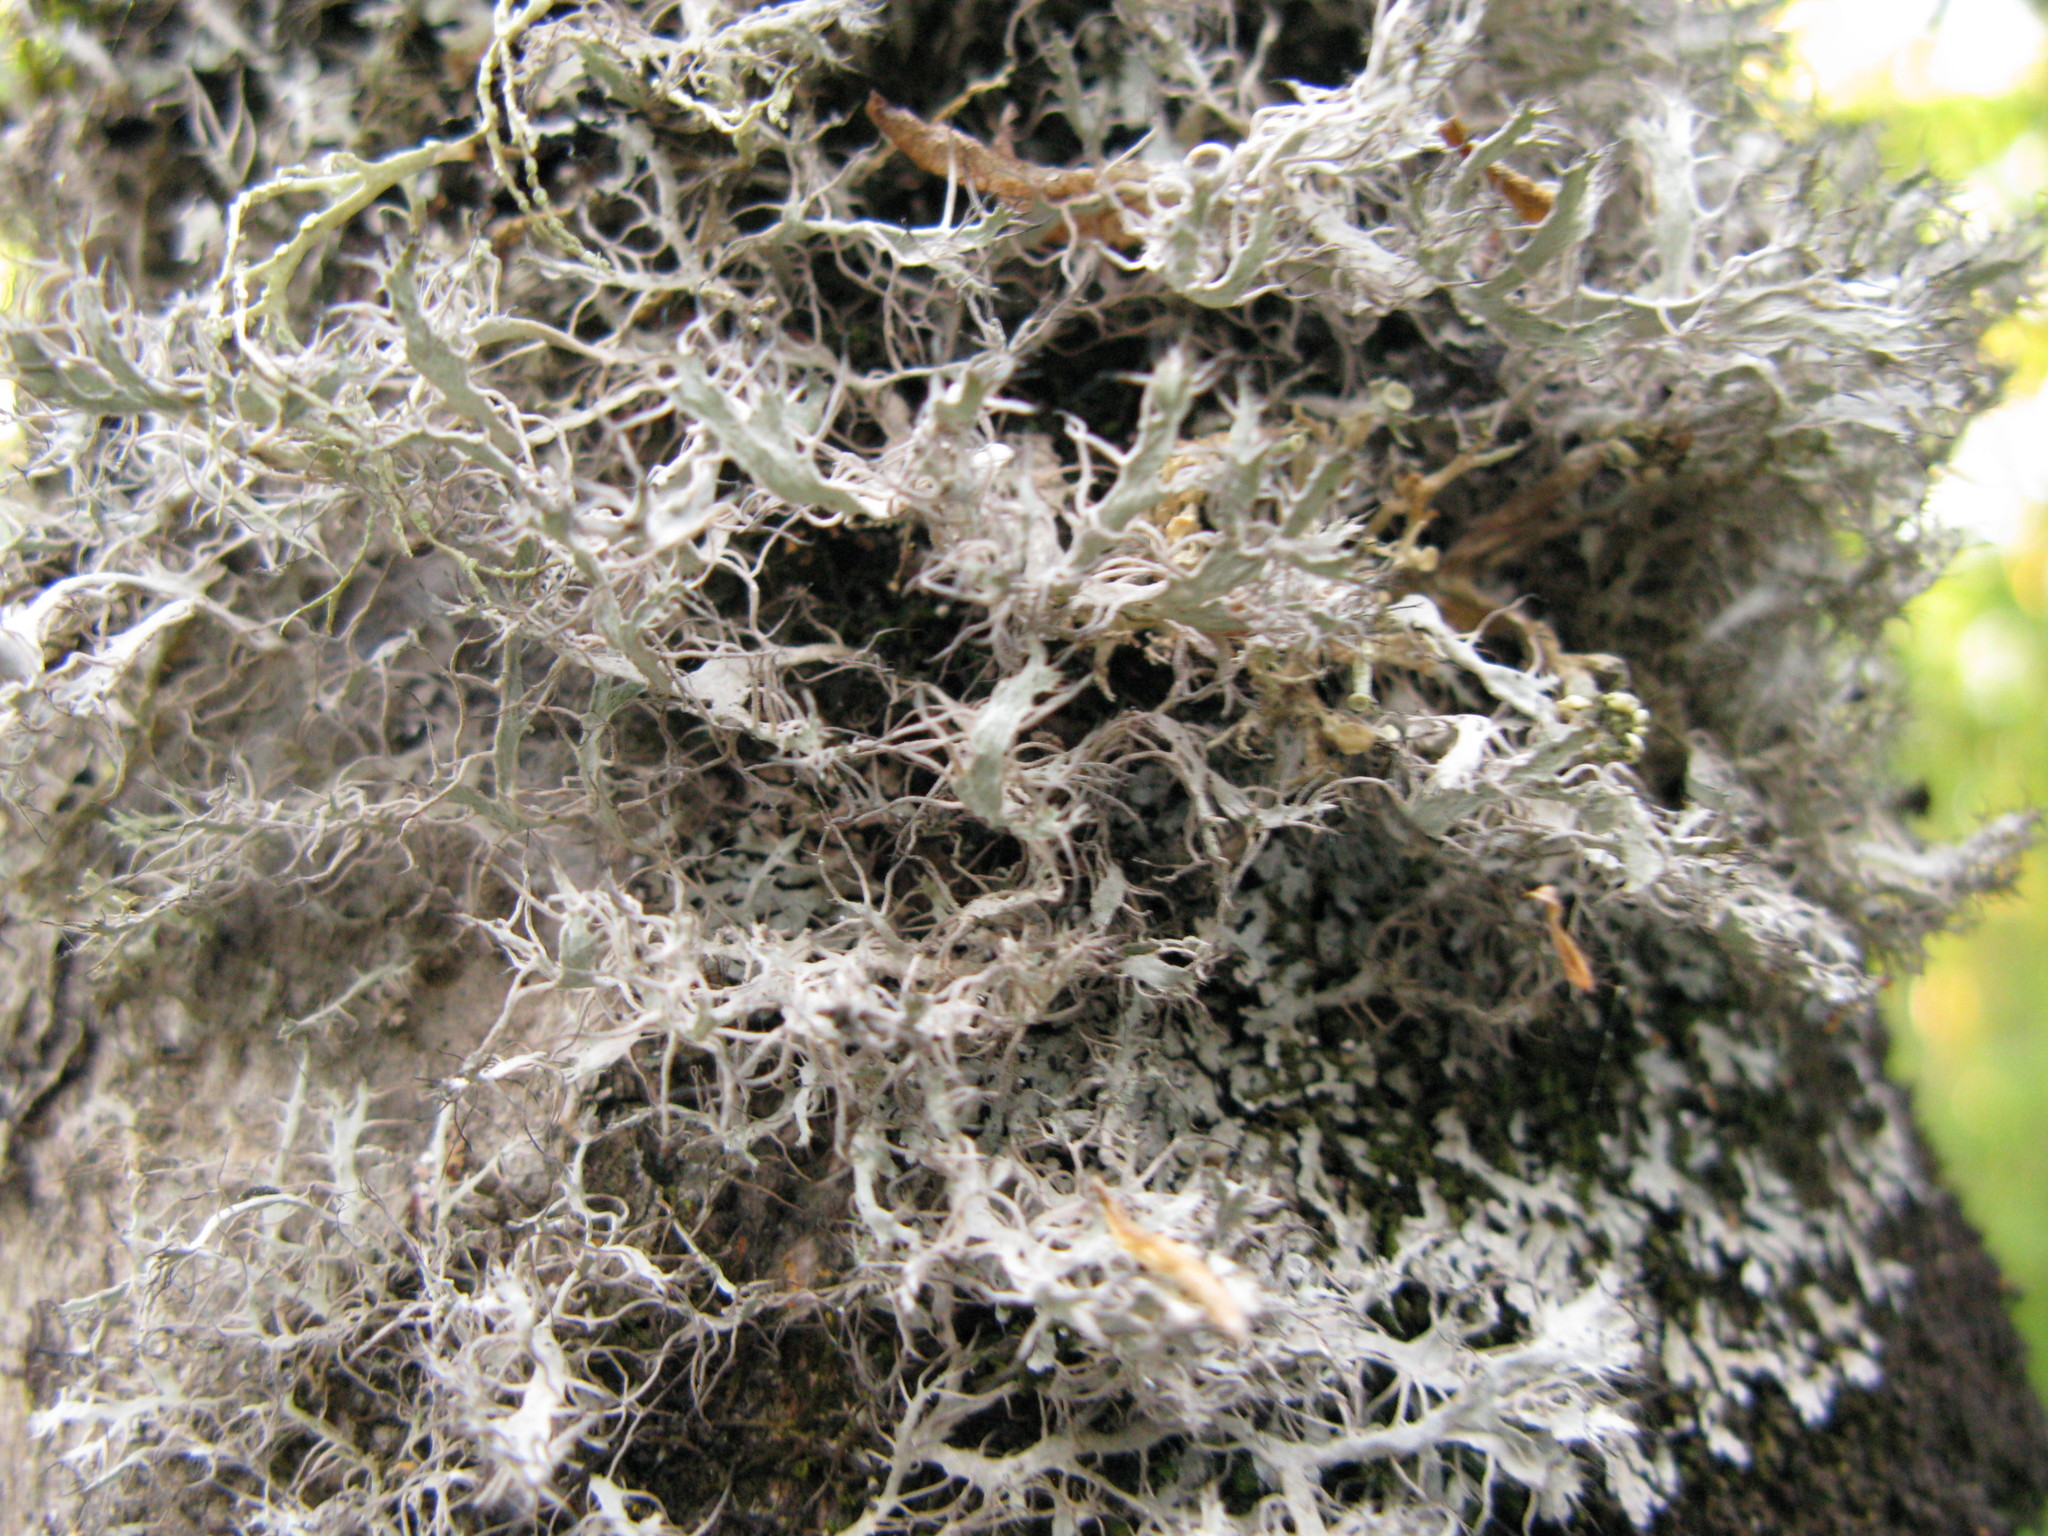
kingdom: Fungi
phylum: Ascomycota
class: Lecanoromycetes
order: Caliciales
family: Physciaceae
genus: Anaptychia
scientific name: Anaptychia ciliaris
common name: Great ciliated lichen
